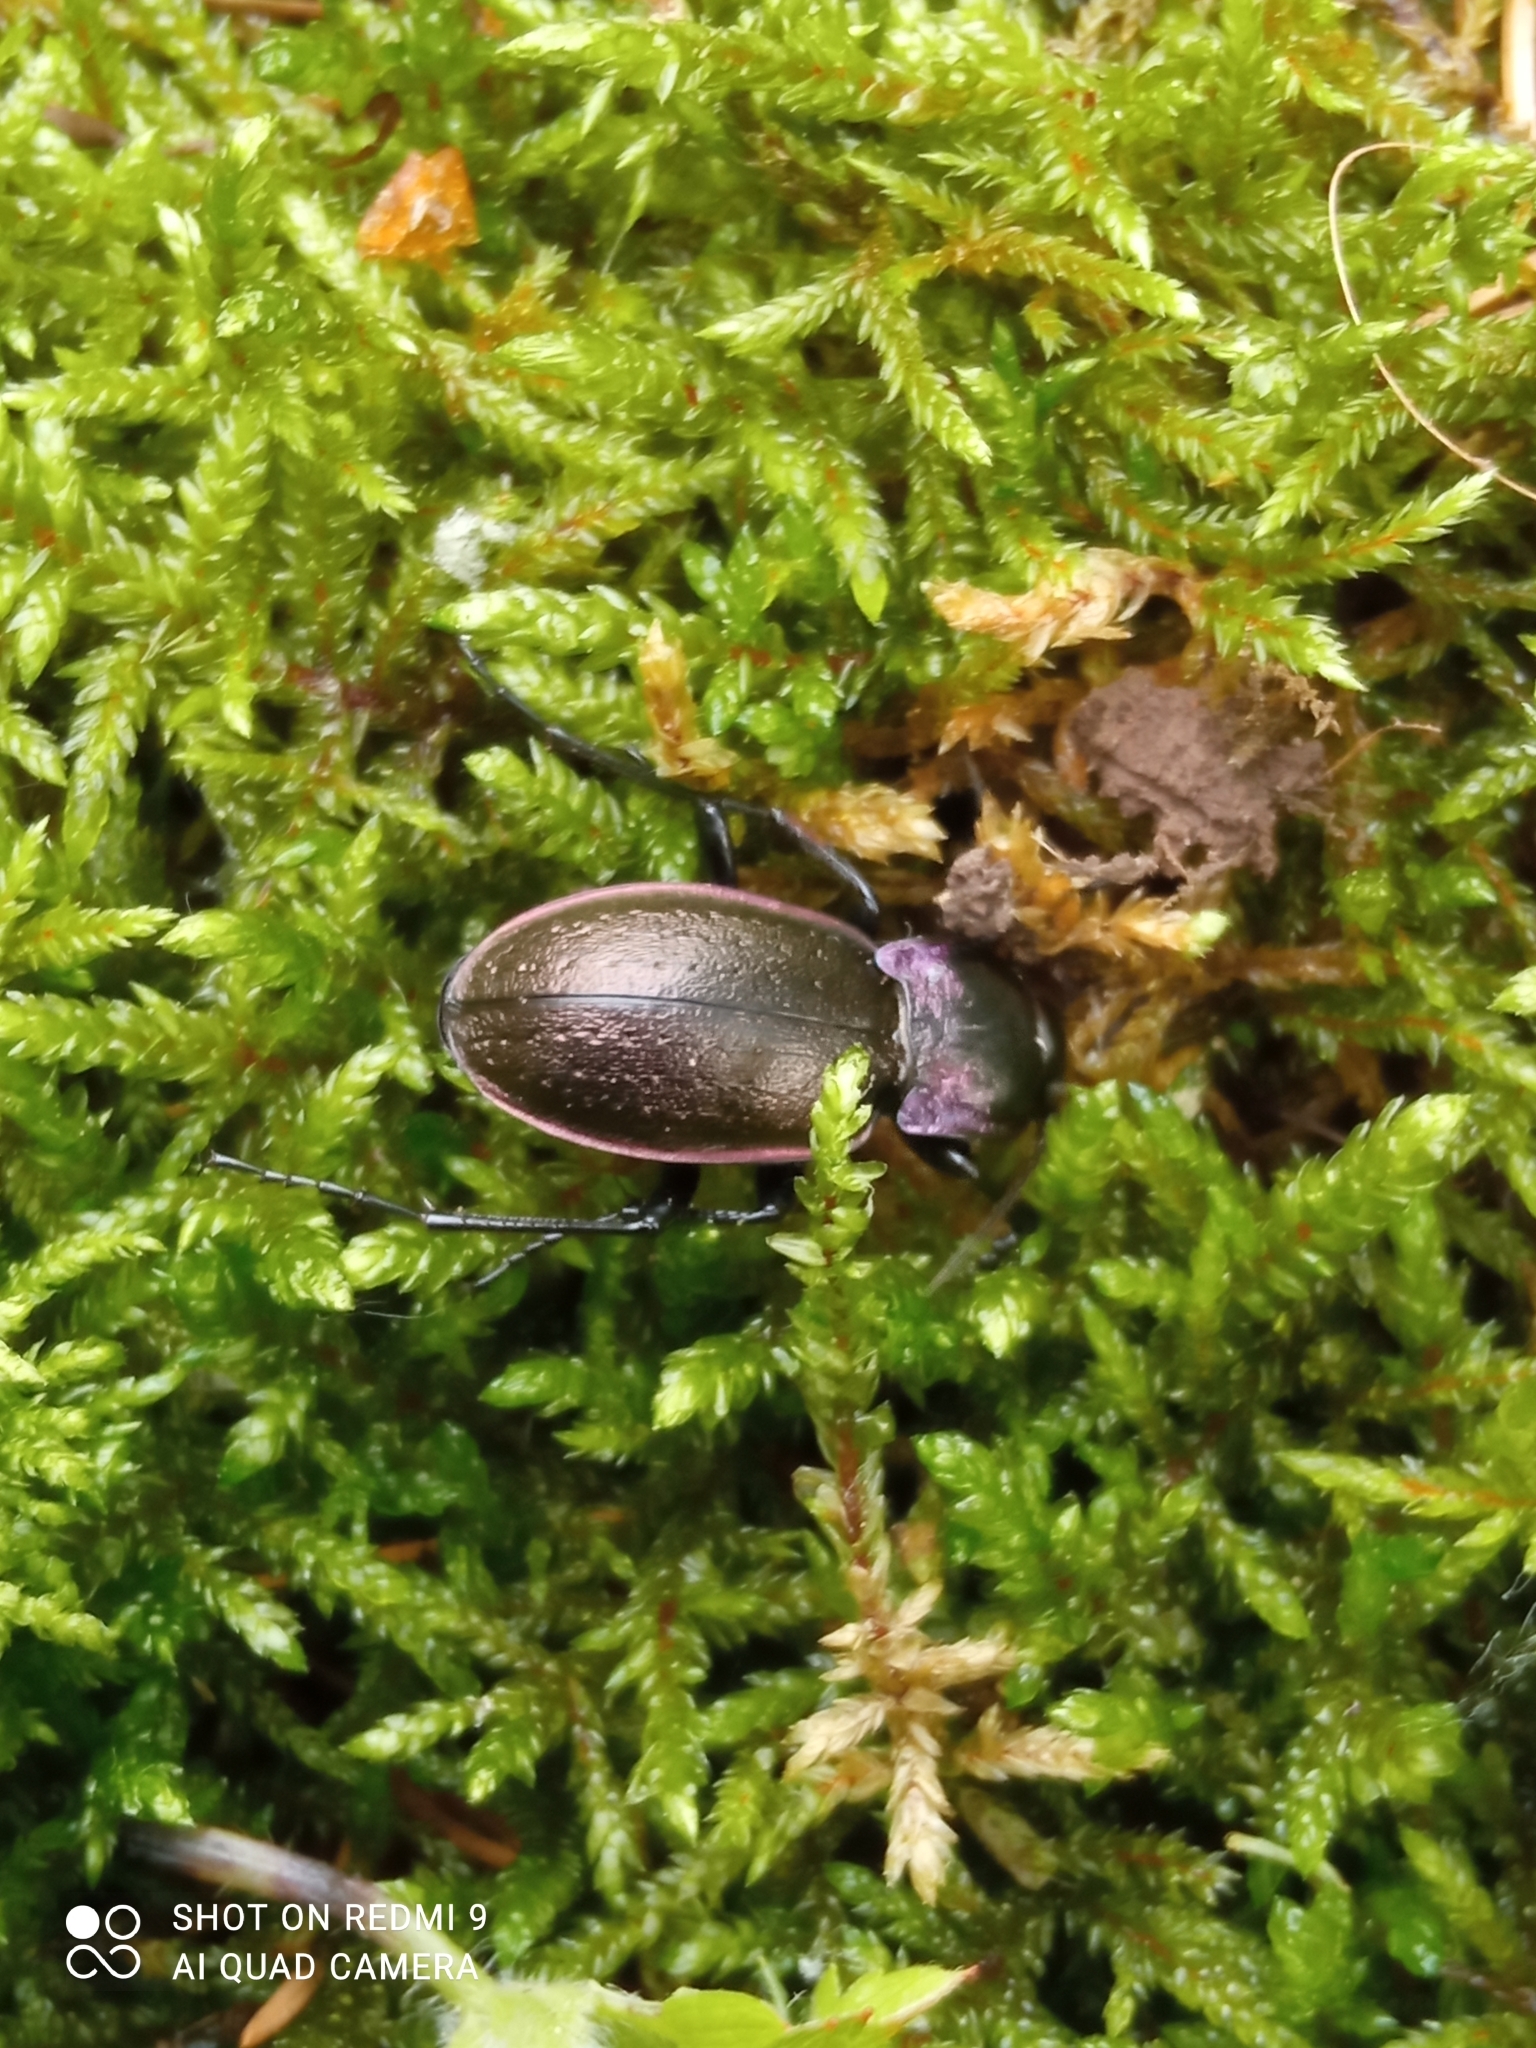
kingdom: Animalia
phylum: Arthropoda
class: Insecta
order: Coleoptera
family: Carabidae
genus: Carabus
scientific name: Carabus nemoralis
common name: European ground beetle
